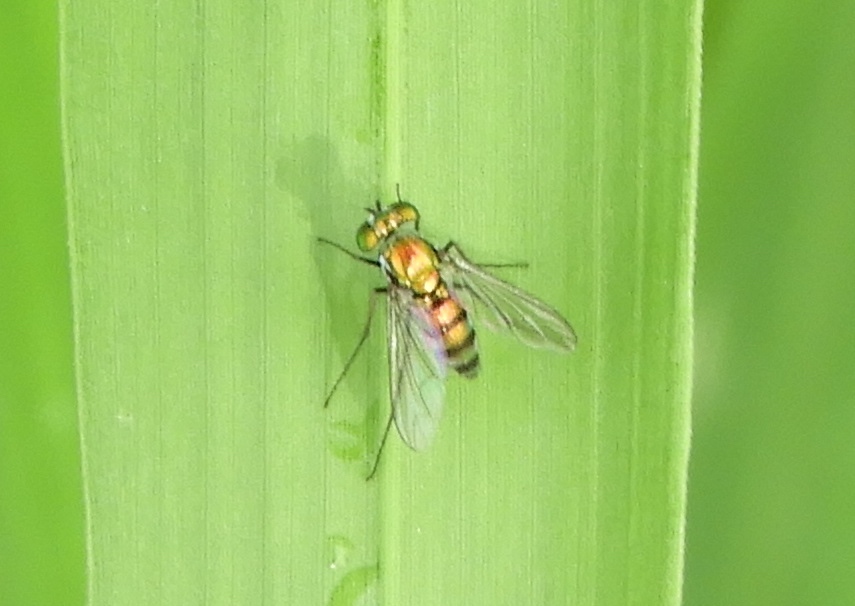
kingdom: Animalia
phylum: Arthropoda
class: Insecta
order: Diptera
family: Dolichopodidae
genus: Condylostylus
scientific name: Condylostylus
